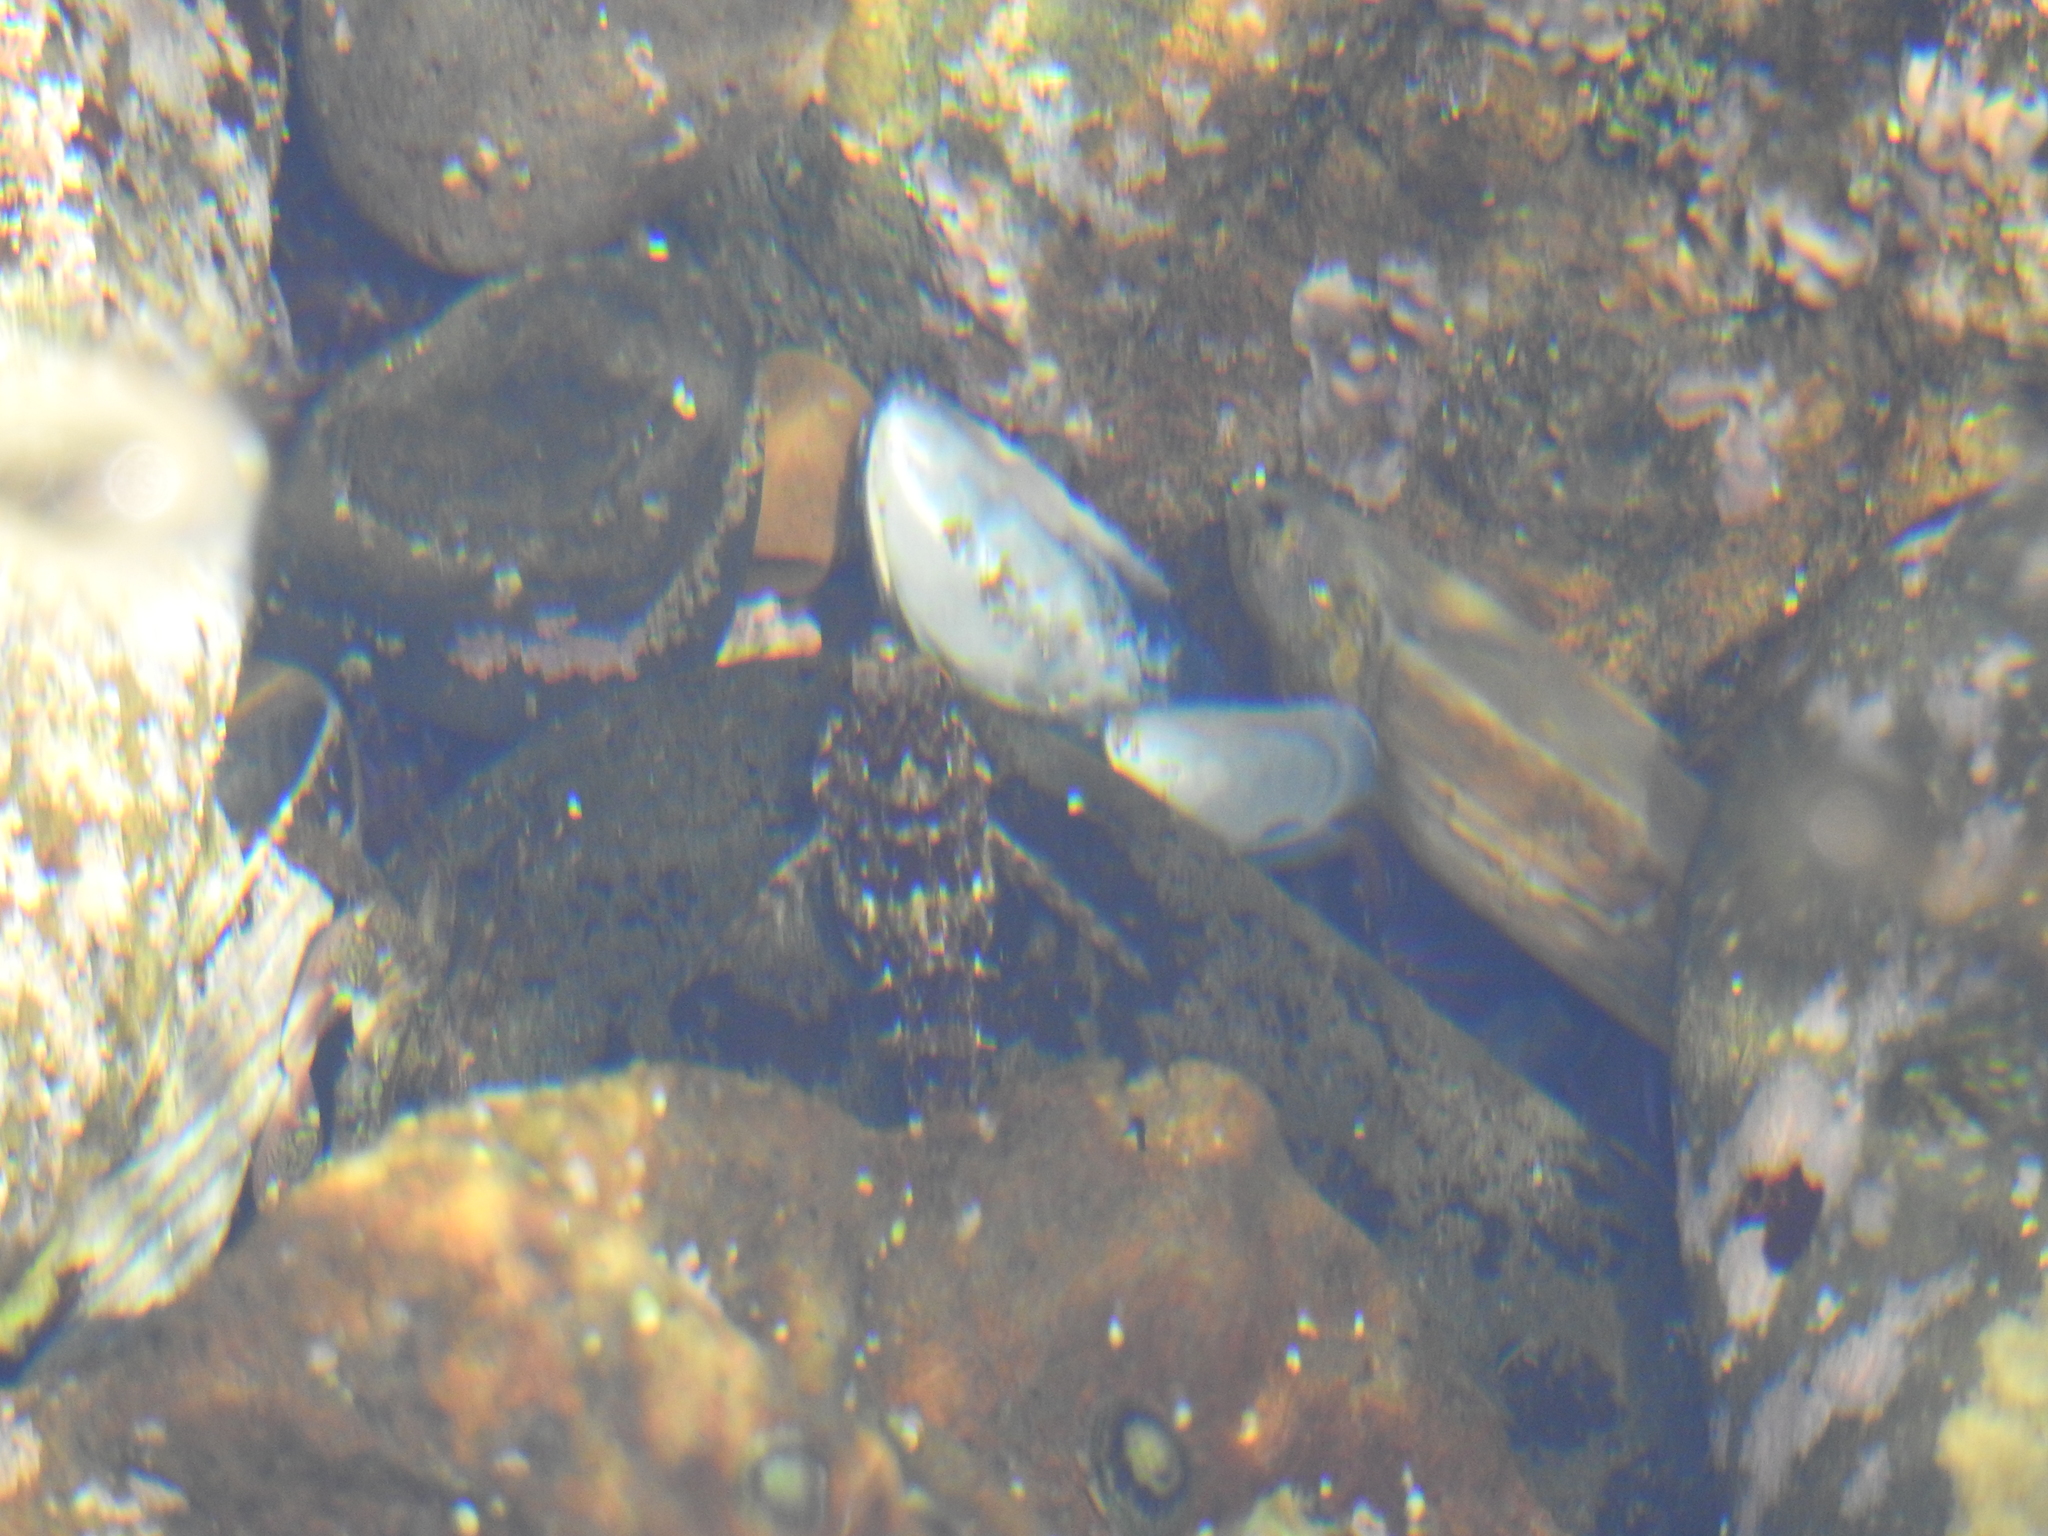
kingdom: Animalia
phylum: Chordata
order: Scorpaeniformes
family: Cottidae
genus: Clinocottus
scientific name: Clinocottus analis
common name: Woolly sculpin
